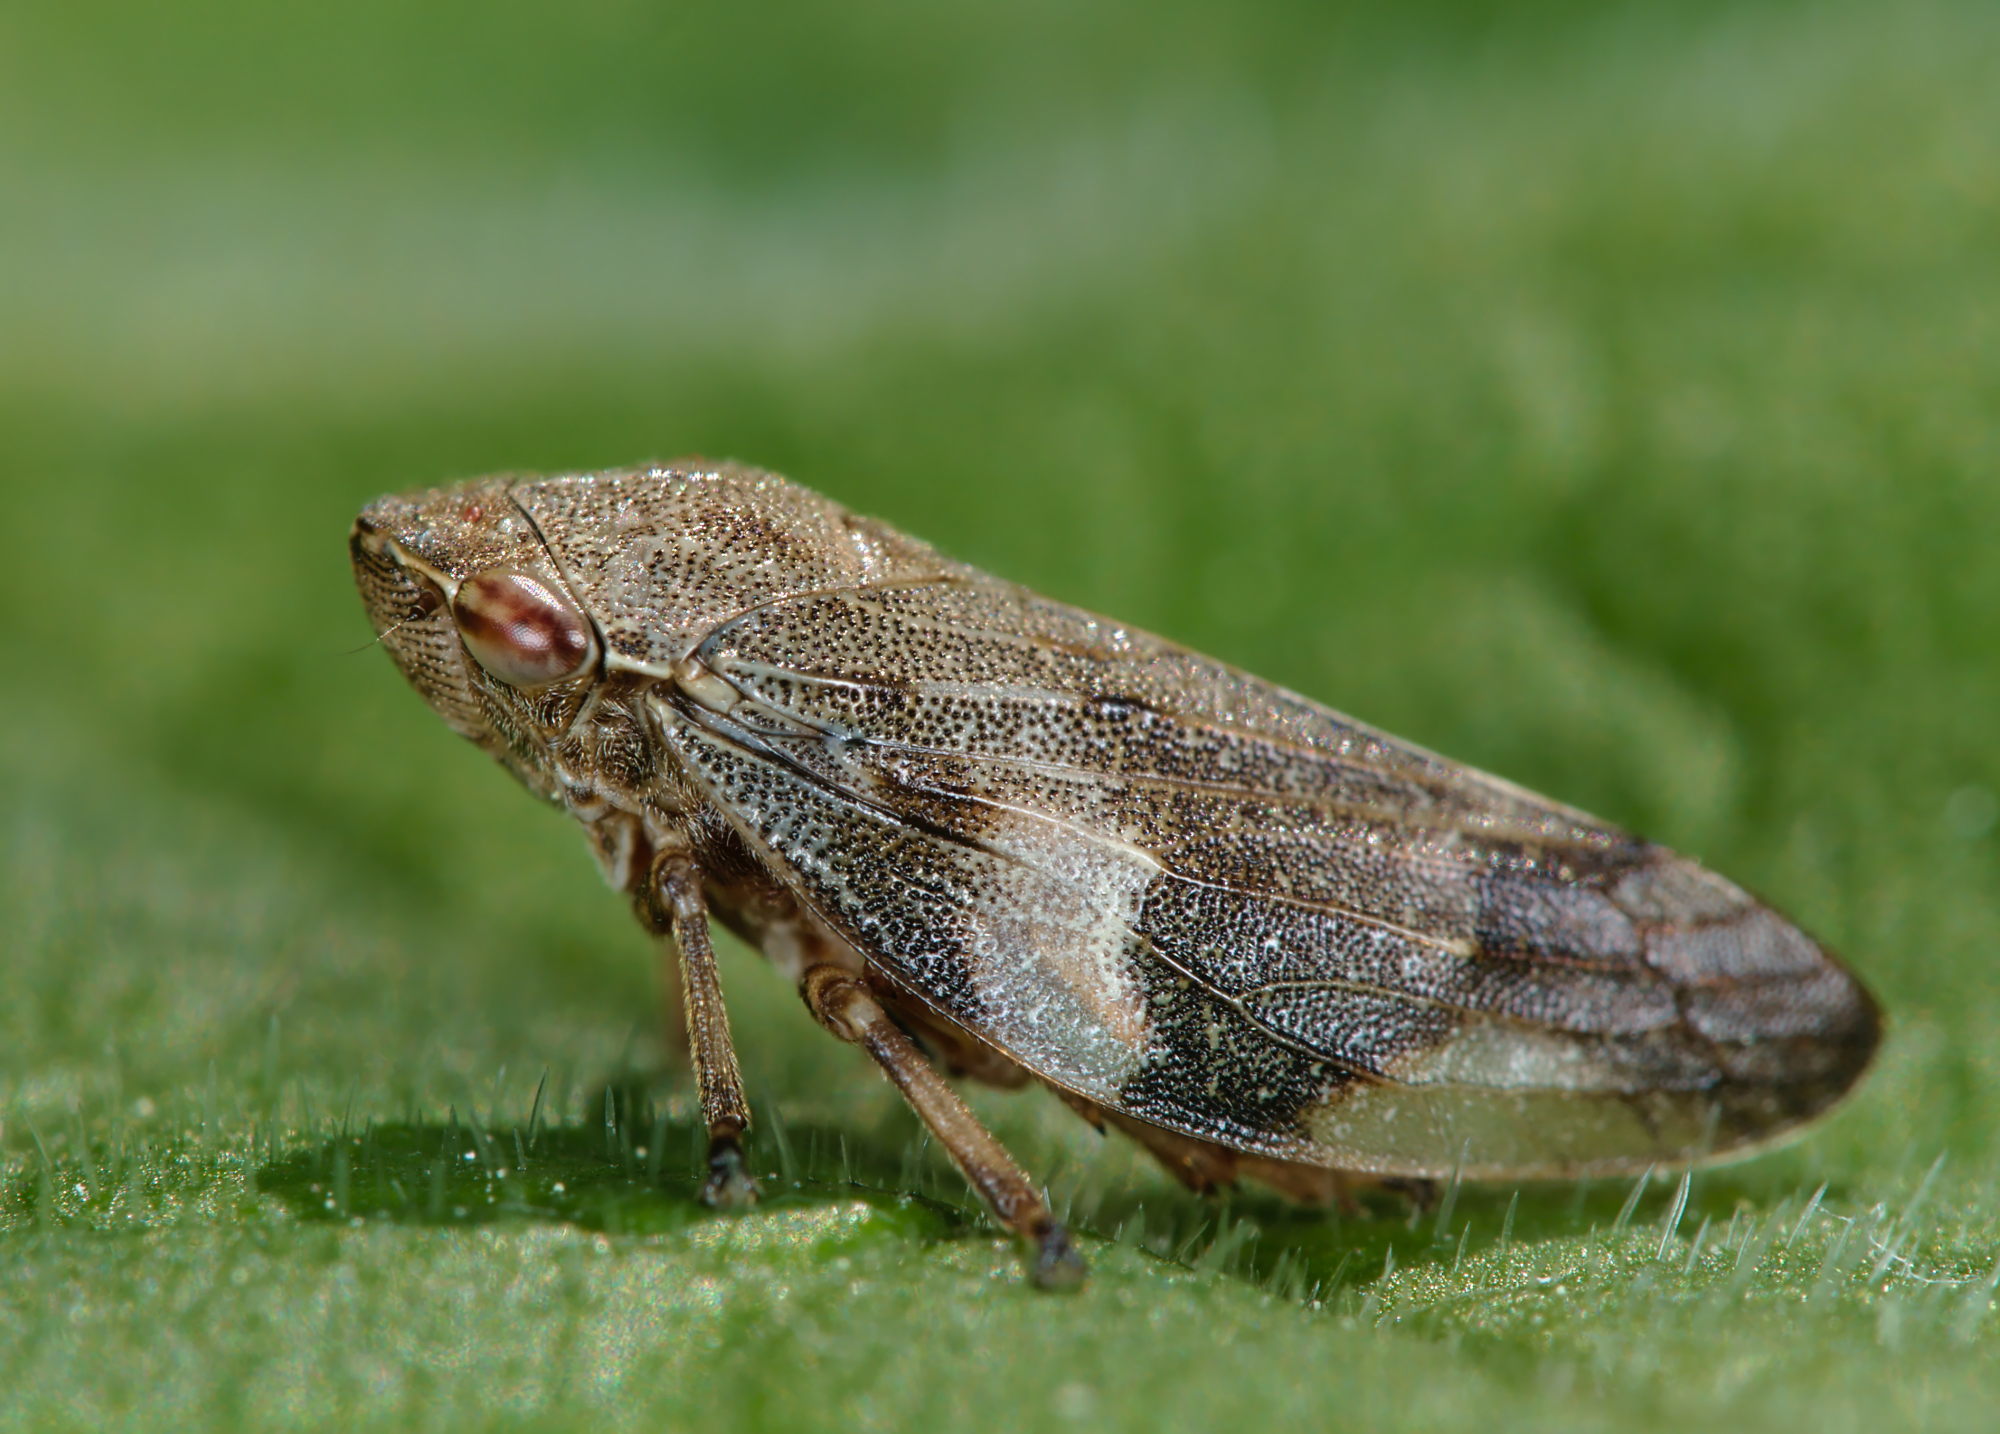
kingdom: Animalia
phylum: Arthropoda
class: Insecta
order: Hemiptera
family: Aphrophoridae
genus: Aphrophora
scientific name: Aphrophora alni
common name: European alder spittlebug
